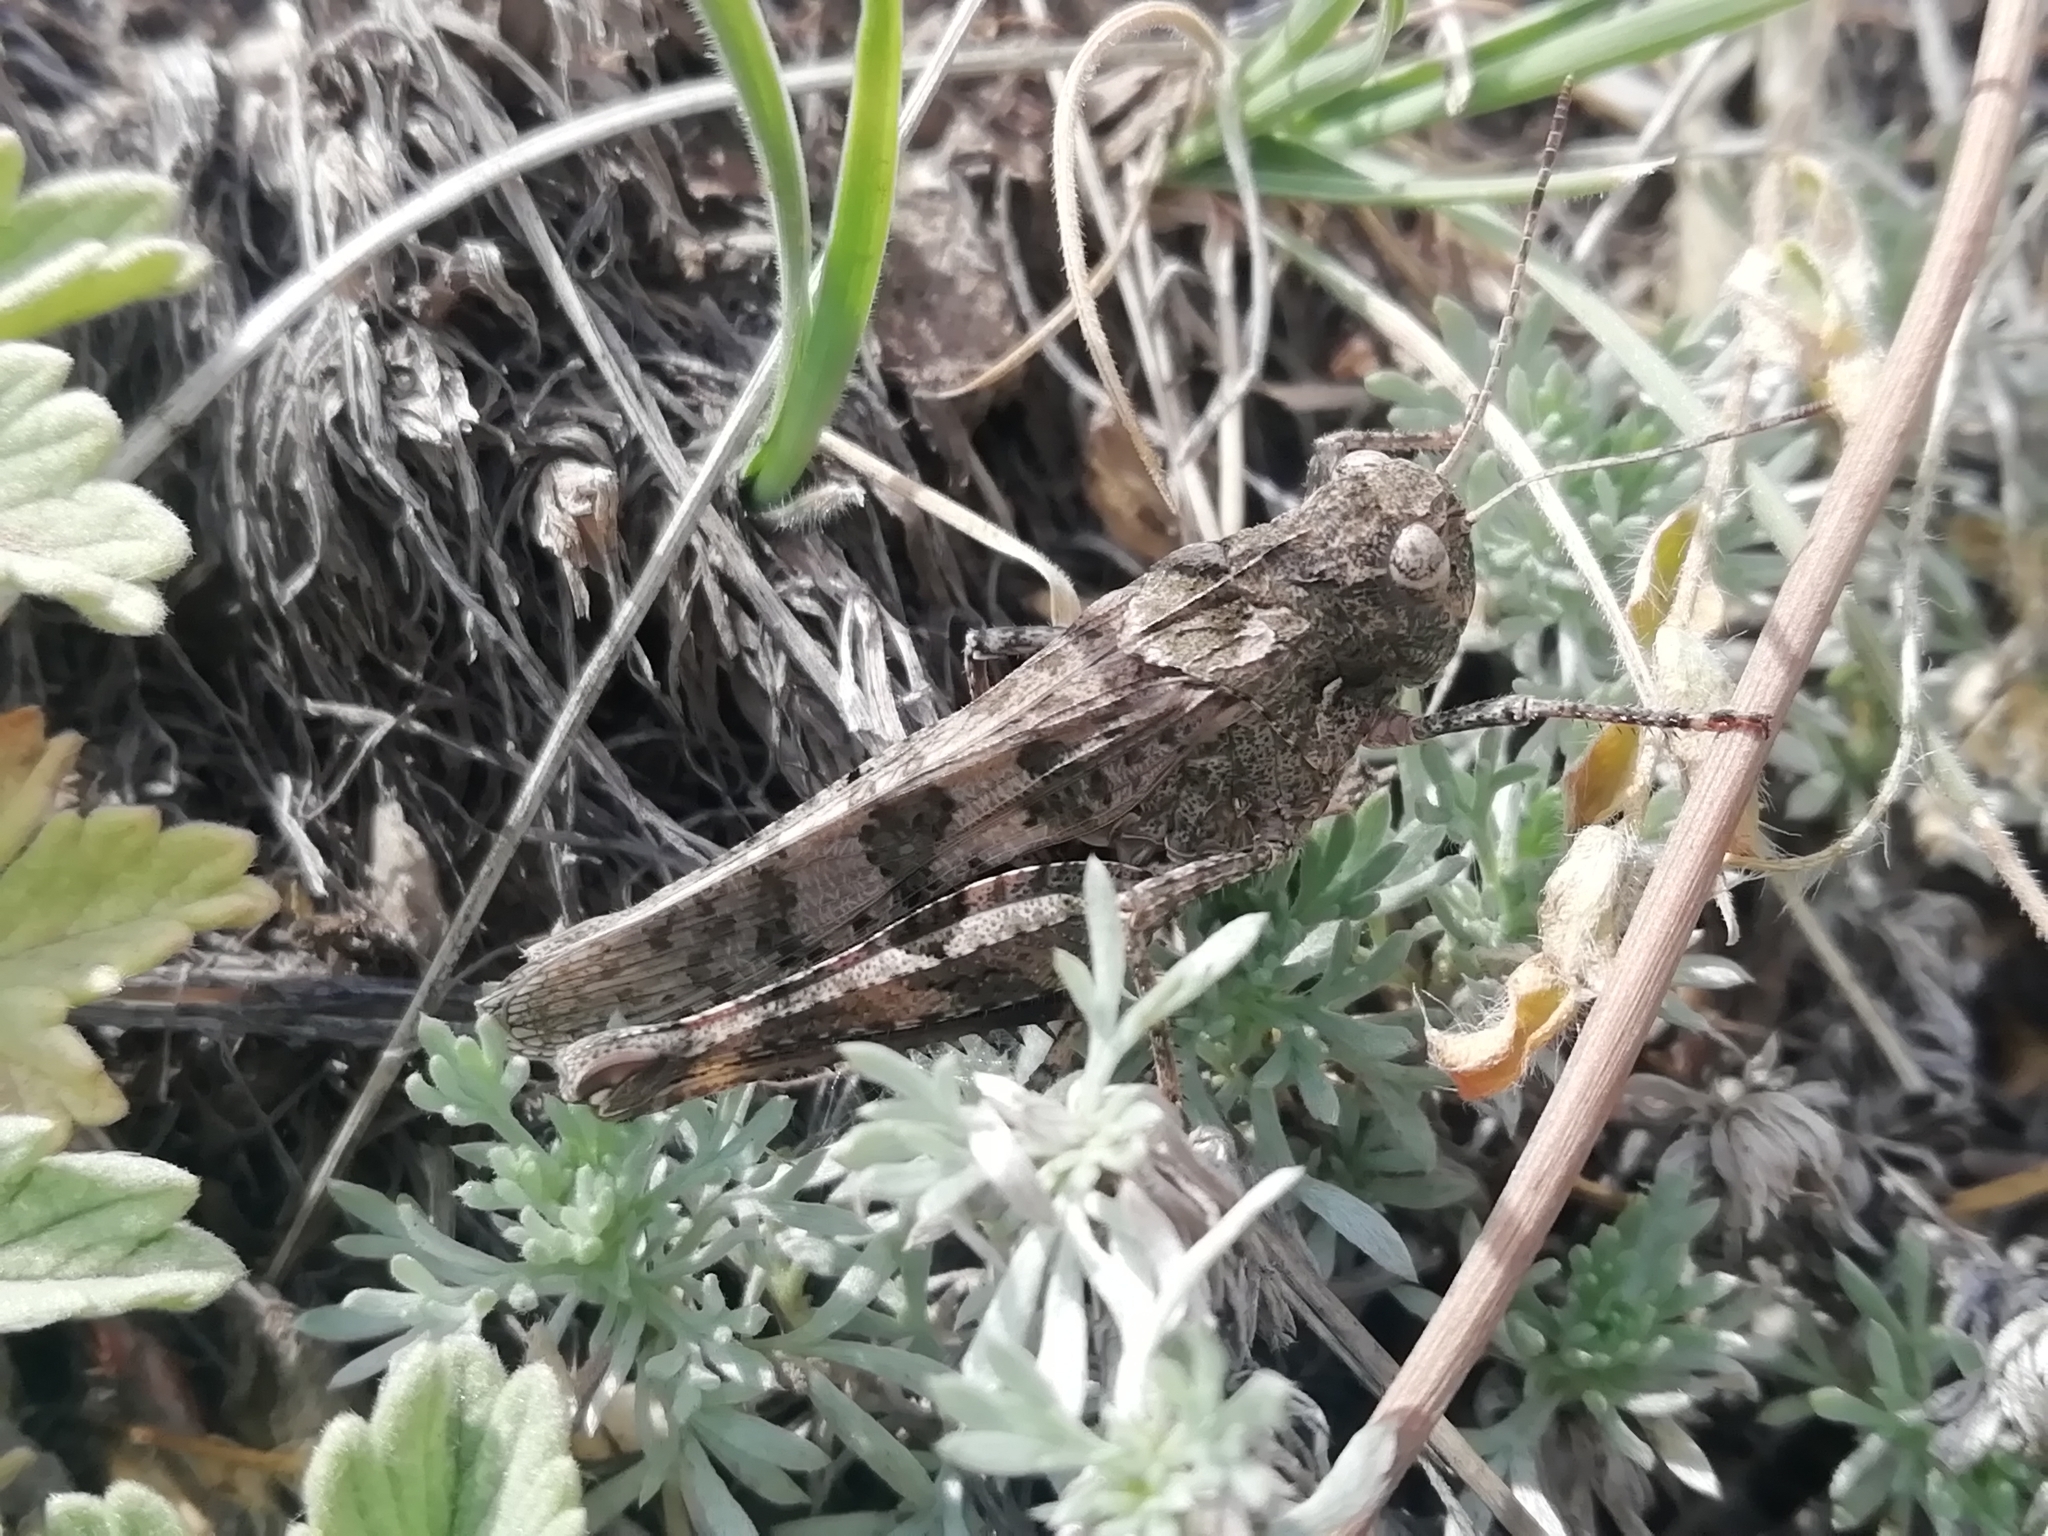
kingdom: Animalia
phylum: Arthropoda
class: Insecta
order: Orthoptera
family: Acrididae
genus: Celes
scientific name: Celes variabilis
